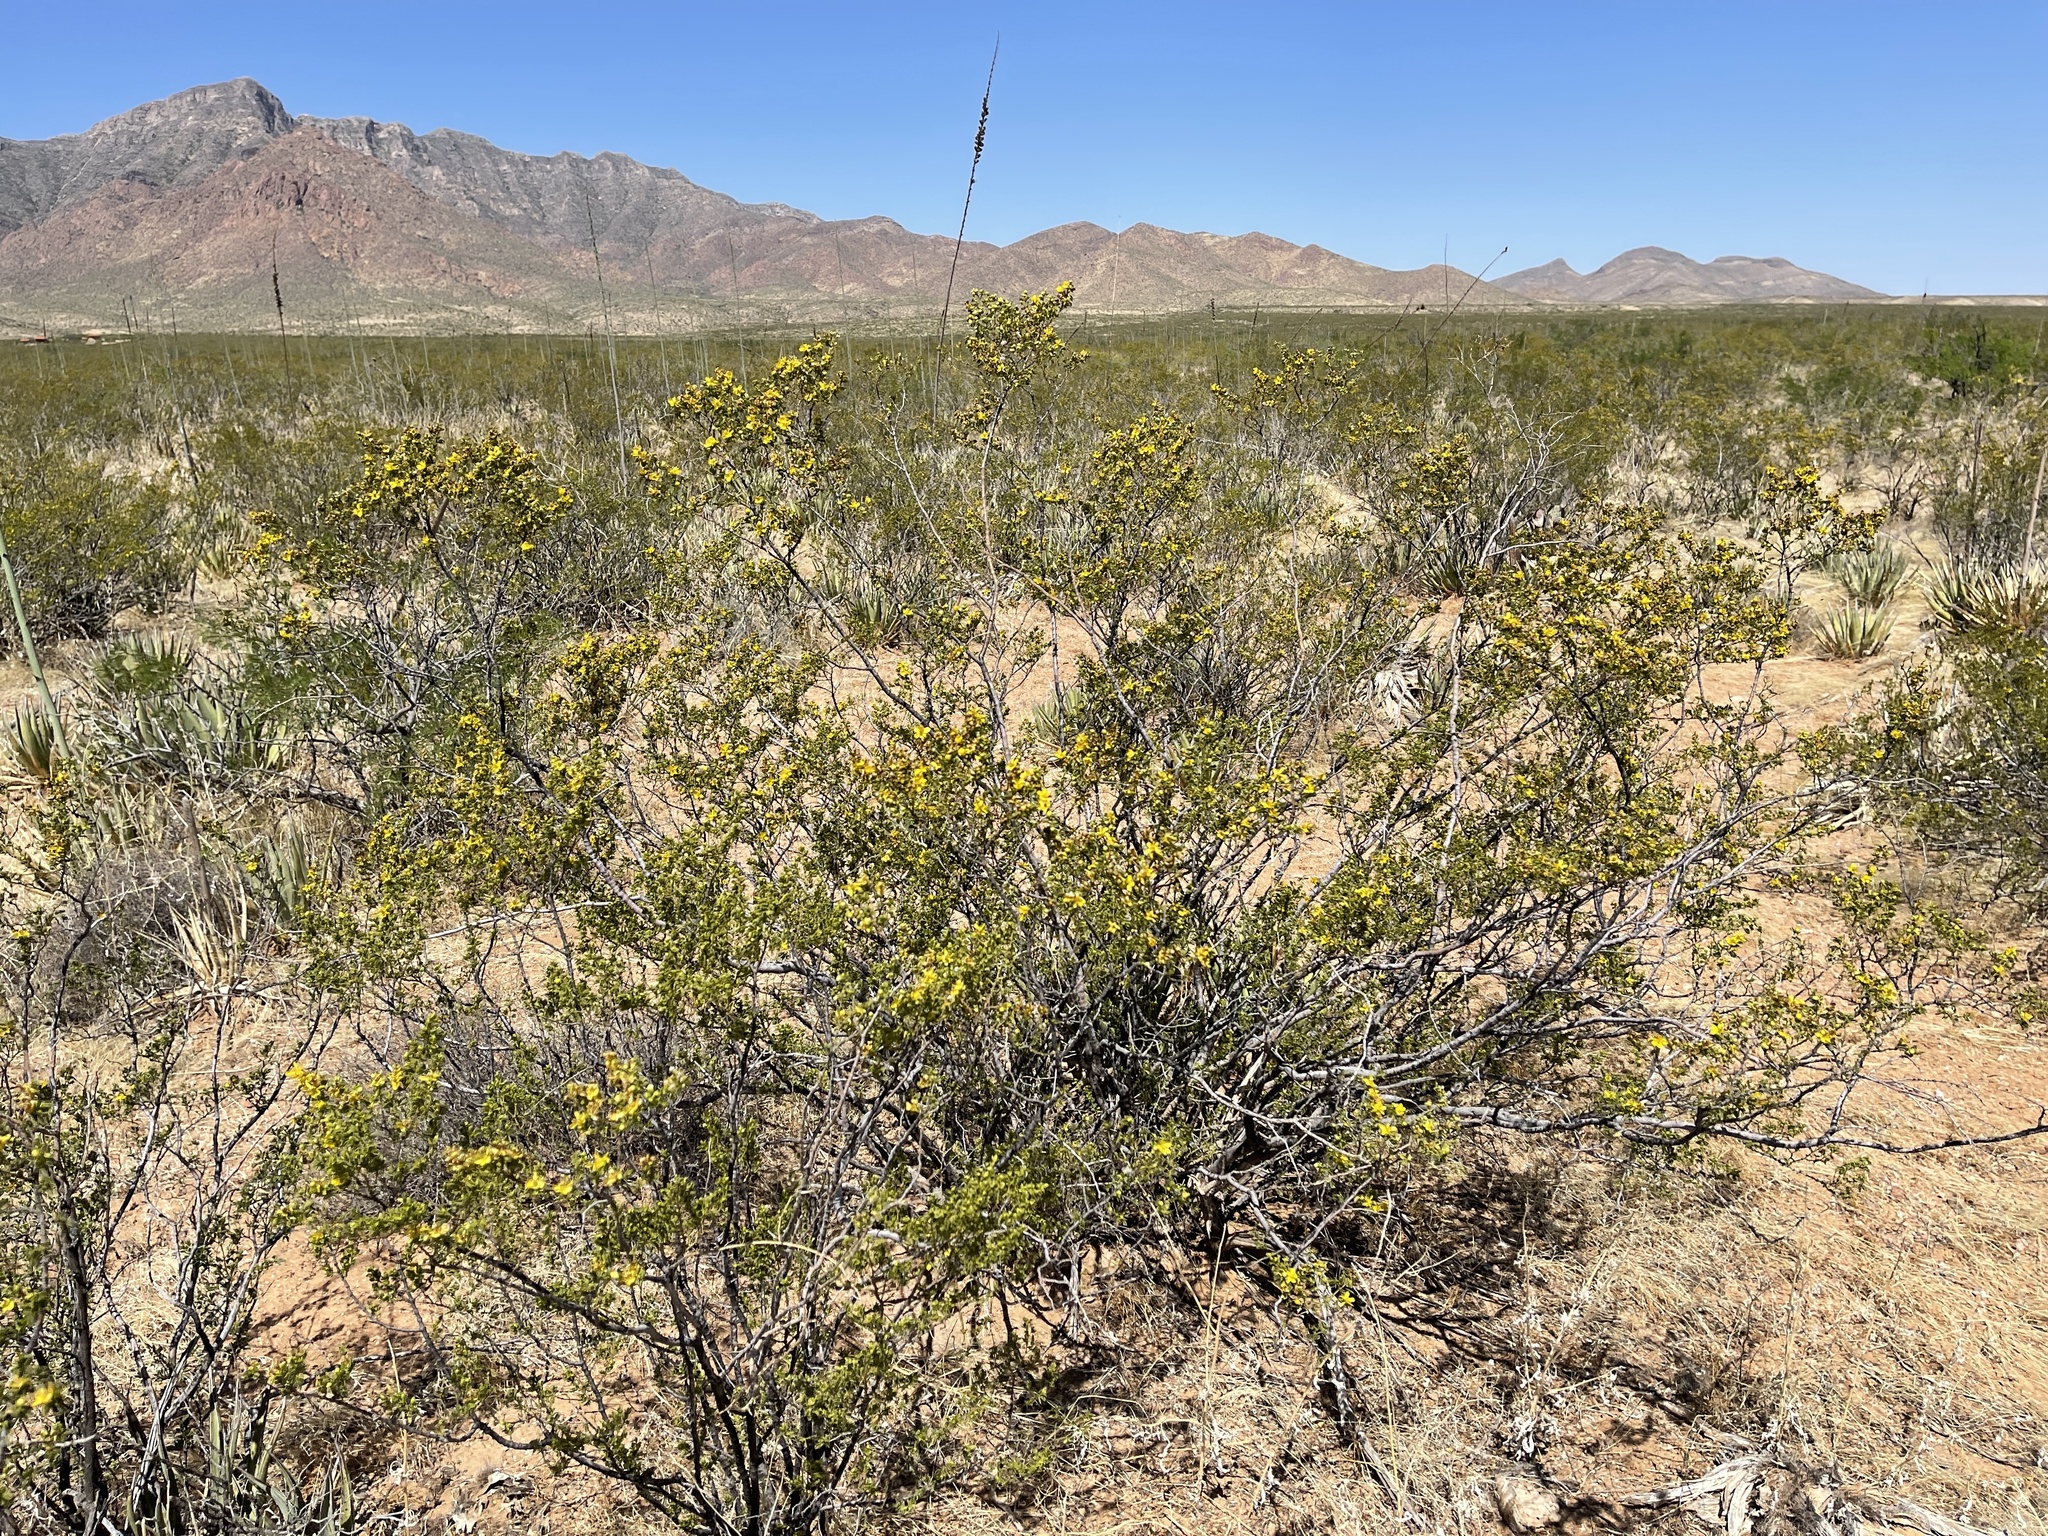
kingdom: Plantae
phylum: Tracheophyta
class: Magnoliopsida
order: Zygophyllales
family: Zygophyllaceae
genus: Larrea
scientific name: Larrea tridentata
